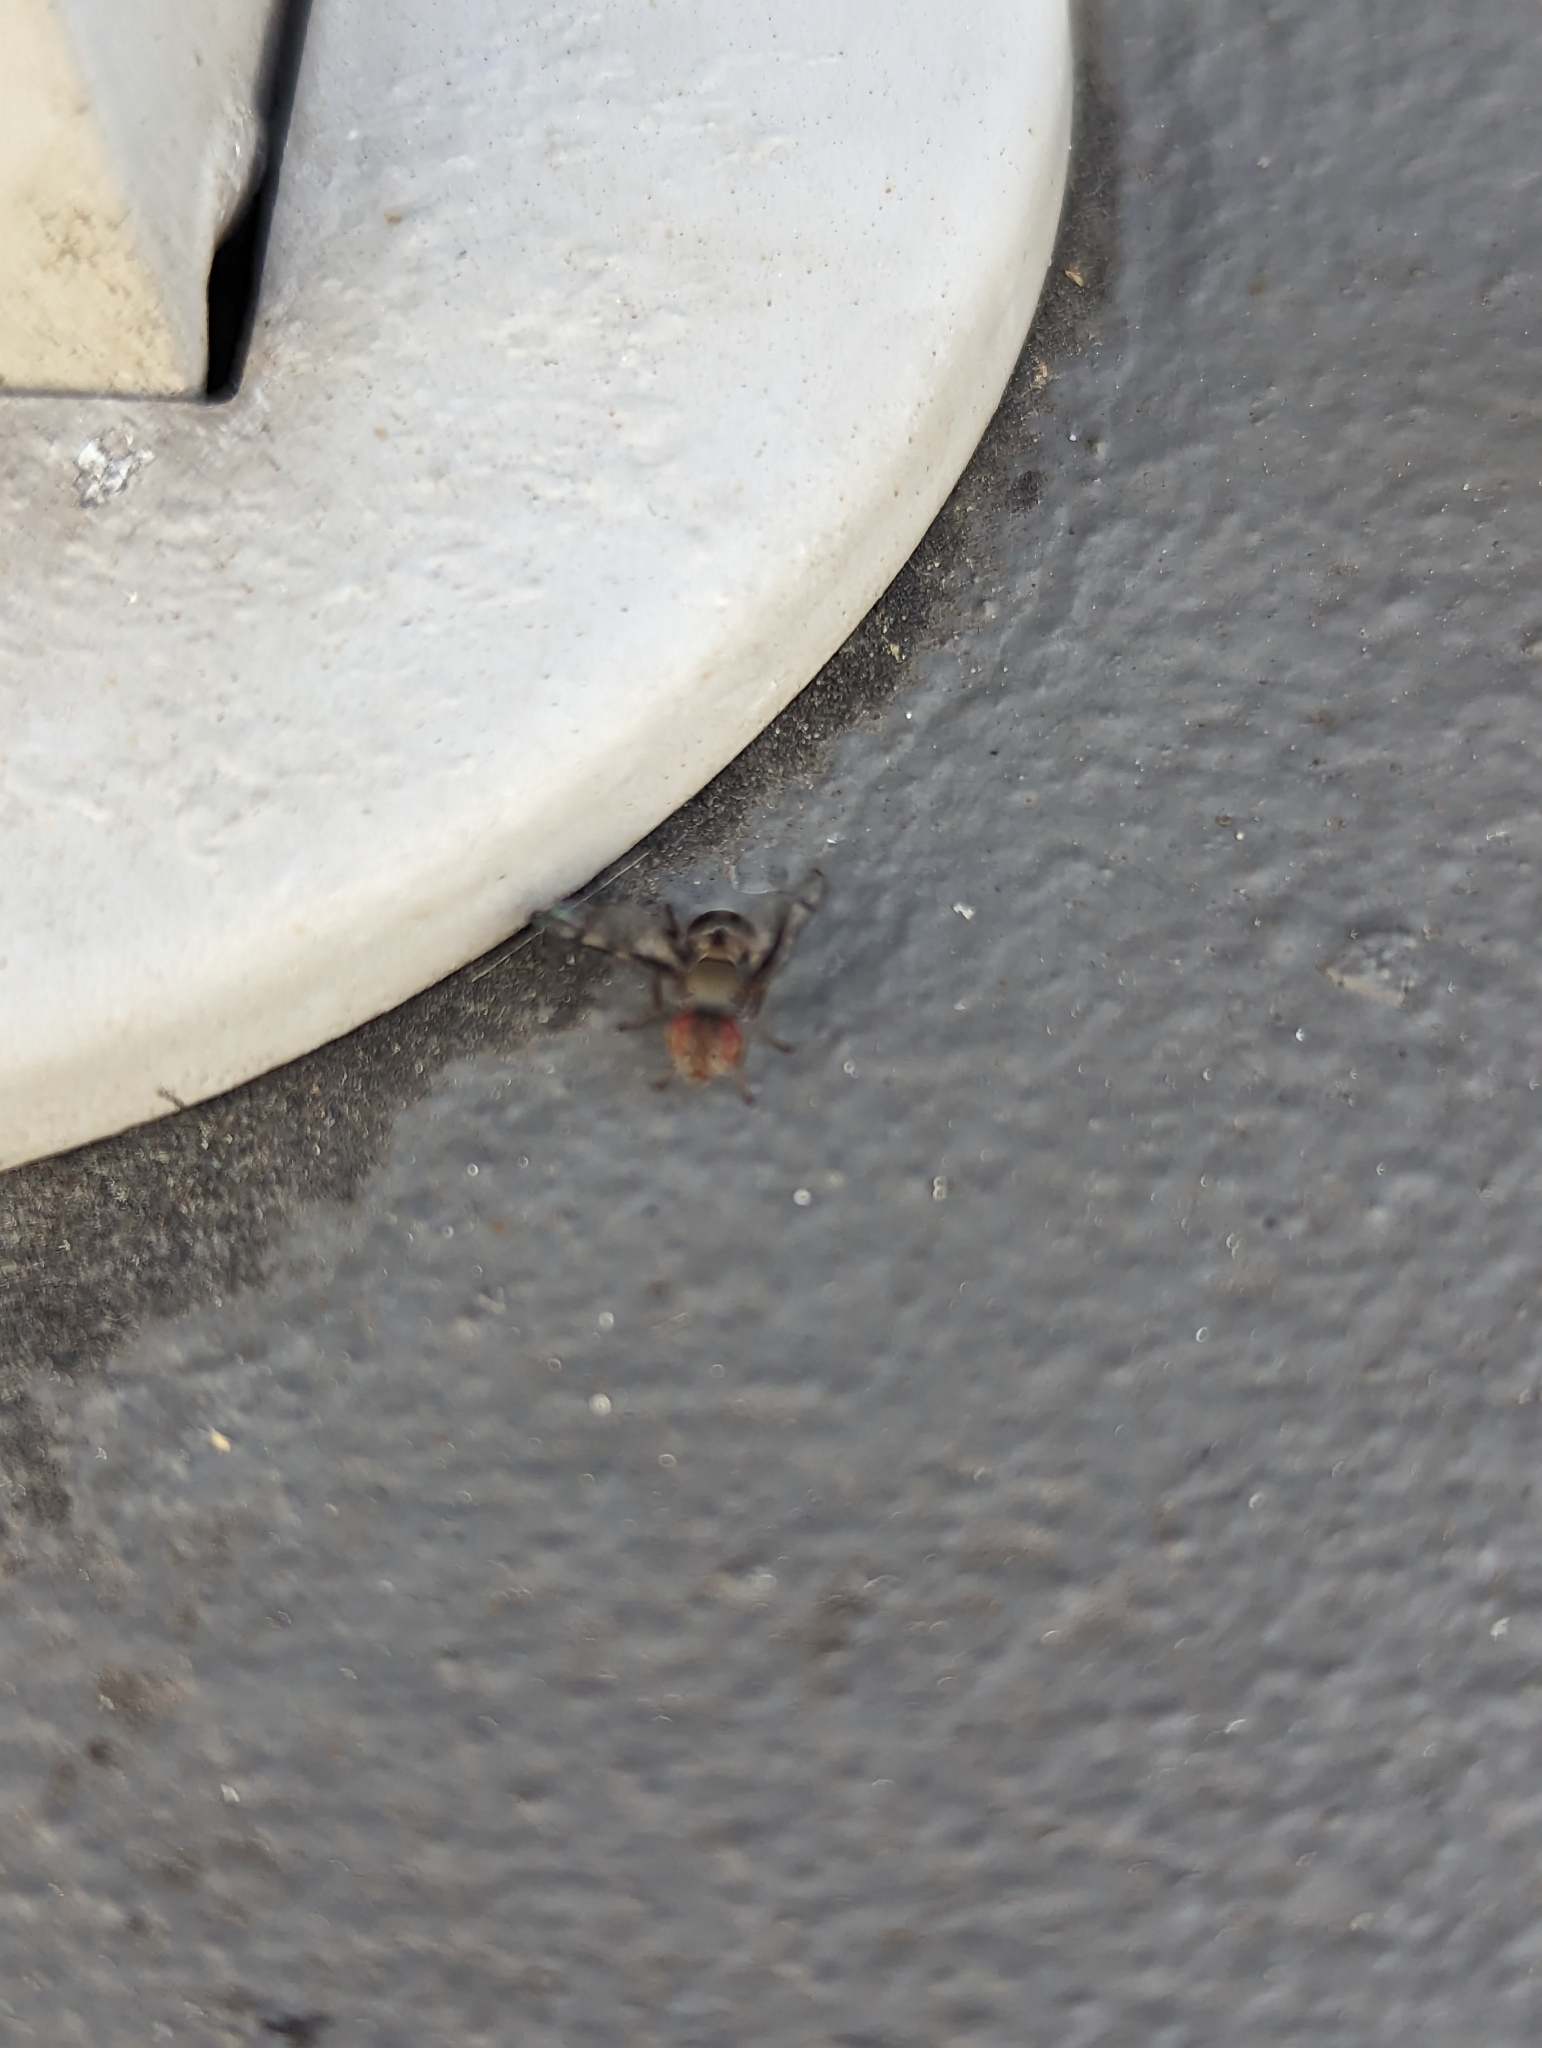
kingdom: Animalia
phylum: Arthropoda
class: Insecta
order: Diptera
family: Platystomatidae
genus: Pogonortalis
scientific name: Pogonortalis doclea
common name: Boatman fly
